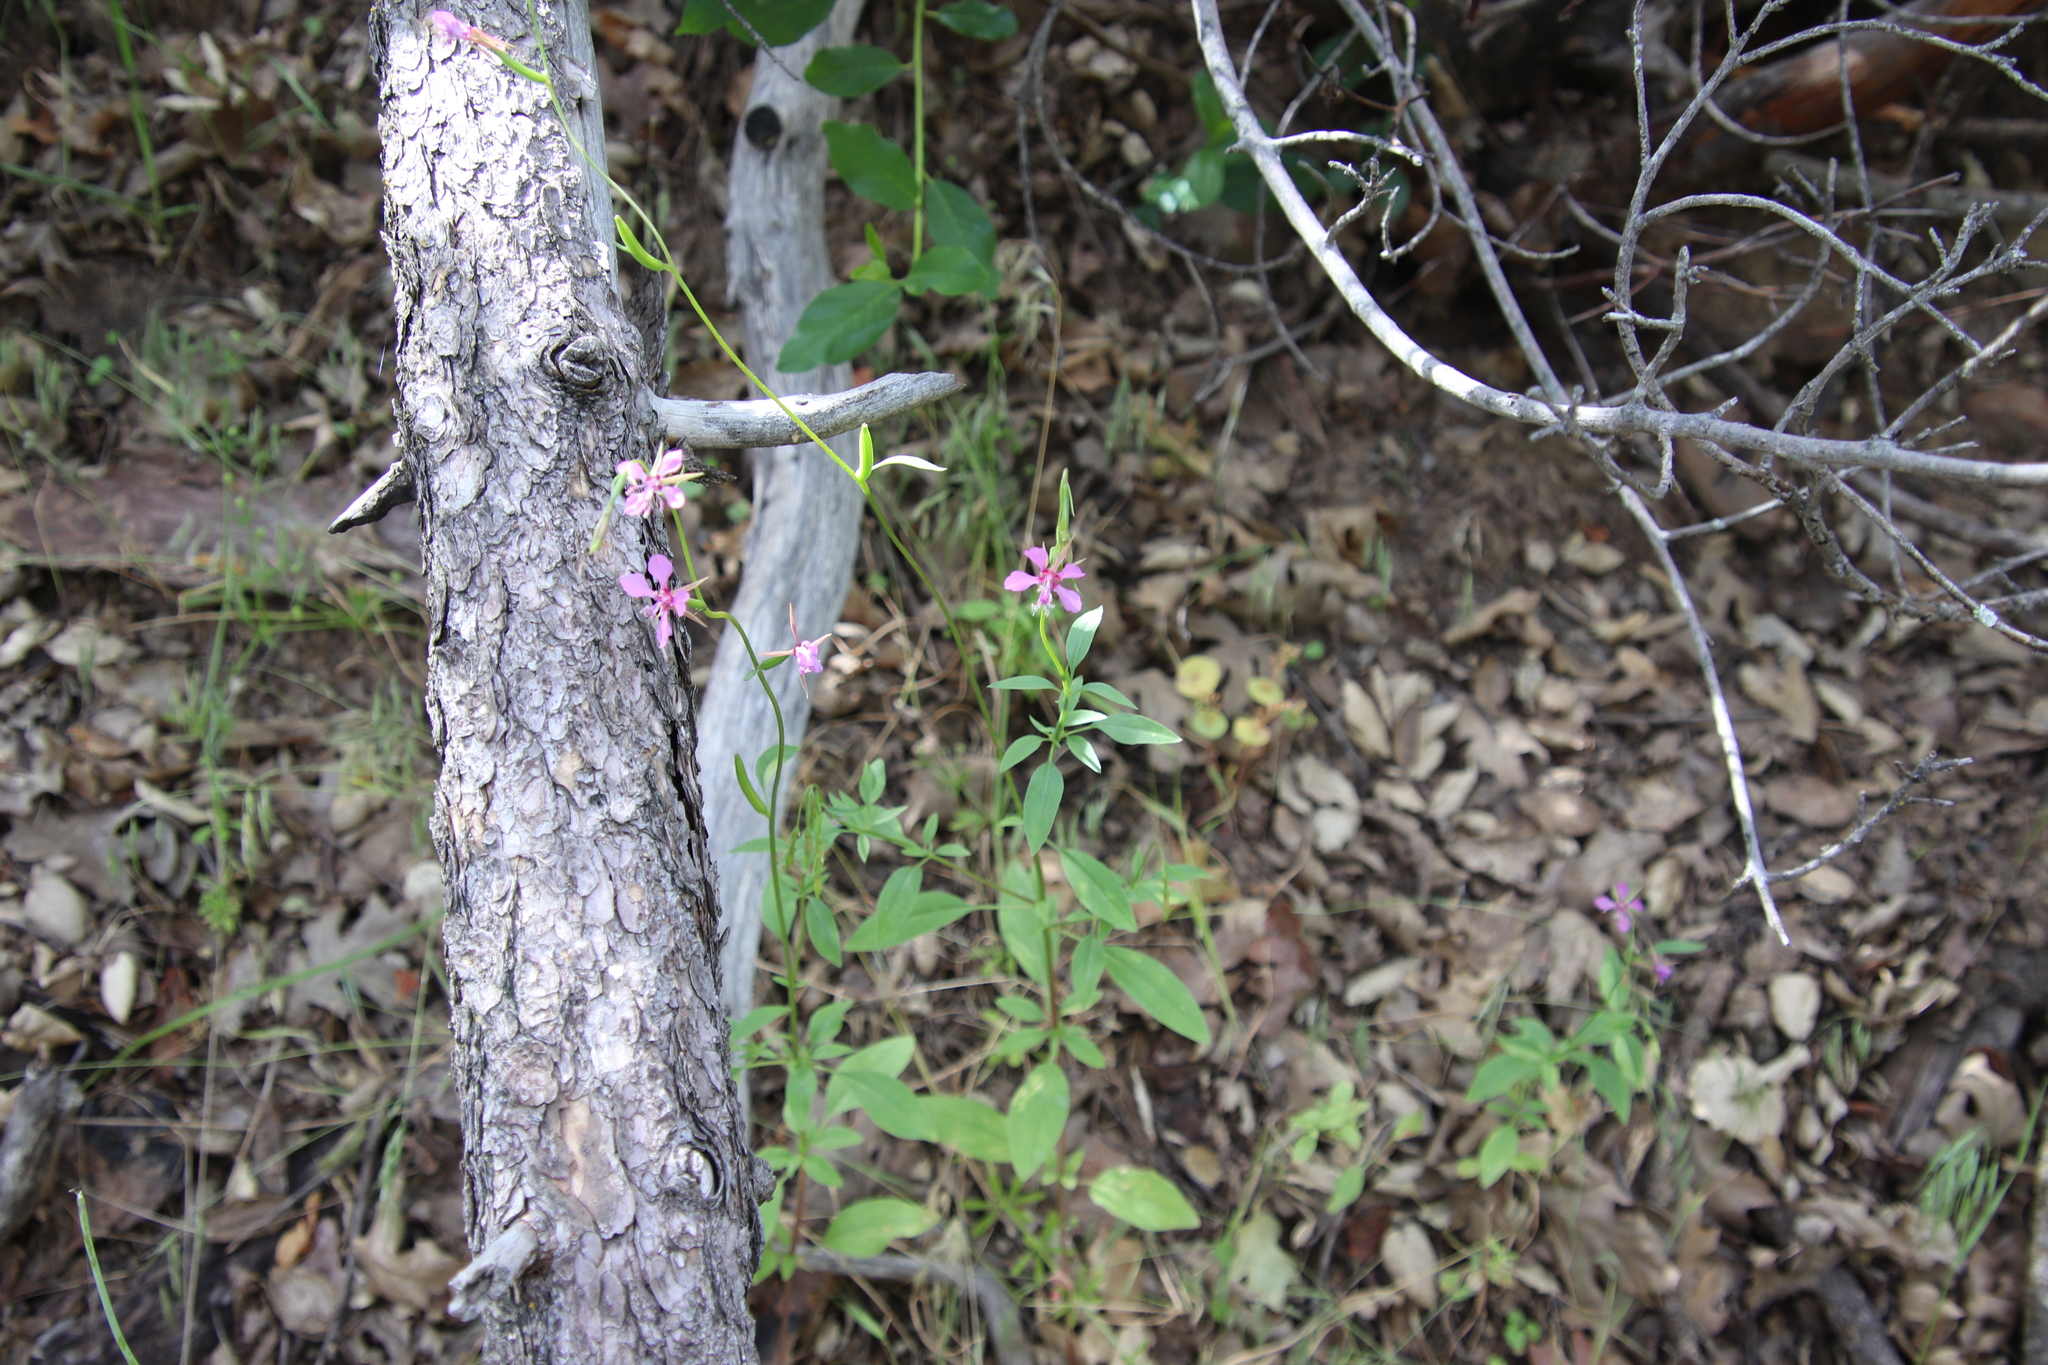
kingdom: Plantae
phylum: Tracheophyta
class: Magnoliopsida
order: Myrtales
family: Onagraceae
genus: Clarkia
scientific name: Clarkia rhomboidea
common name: Broadleaf clarkia
